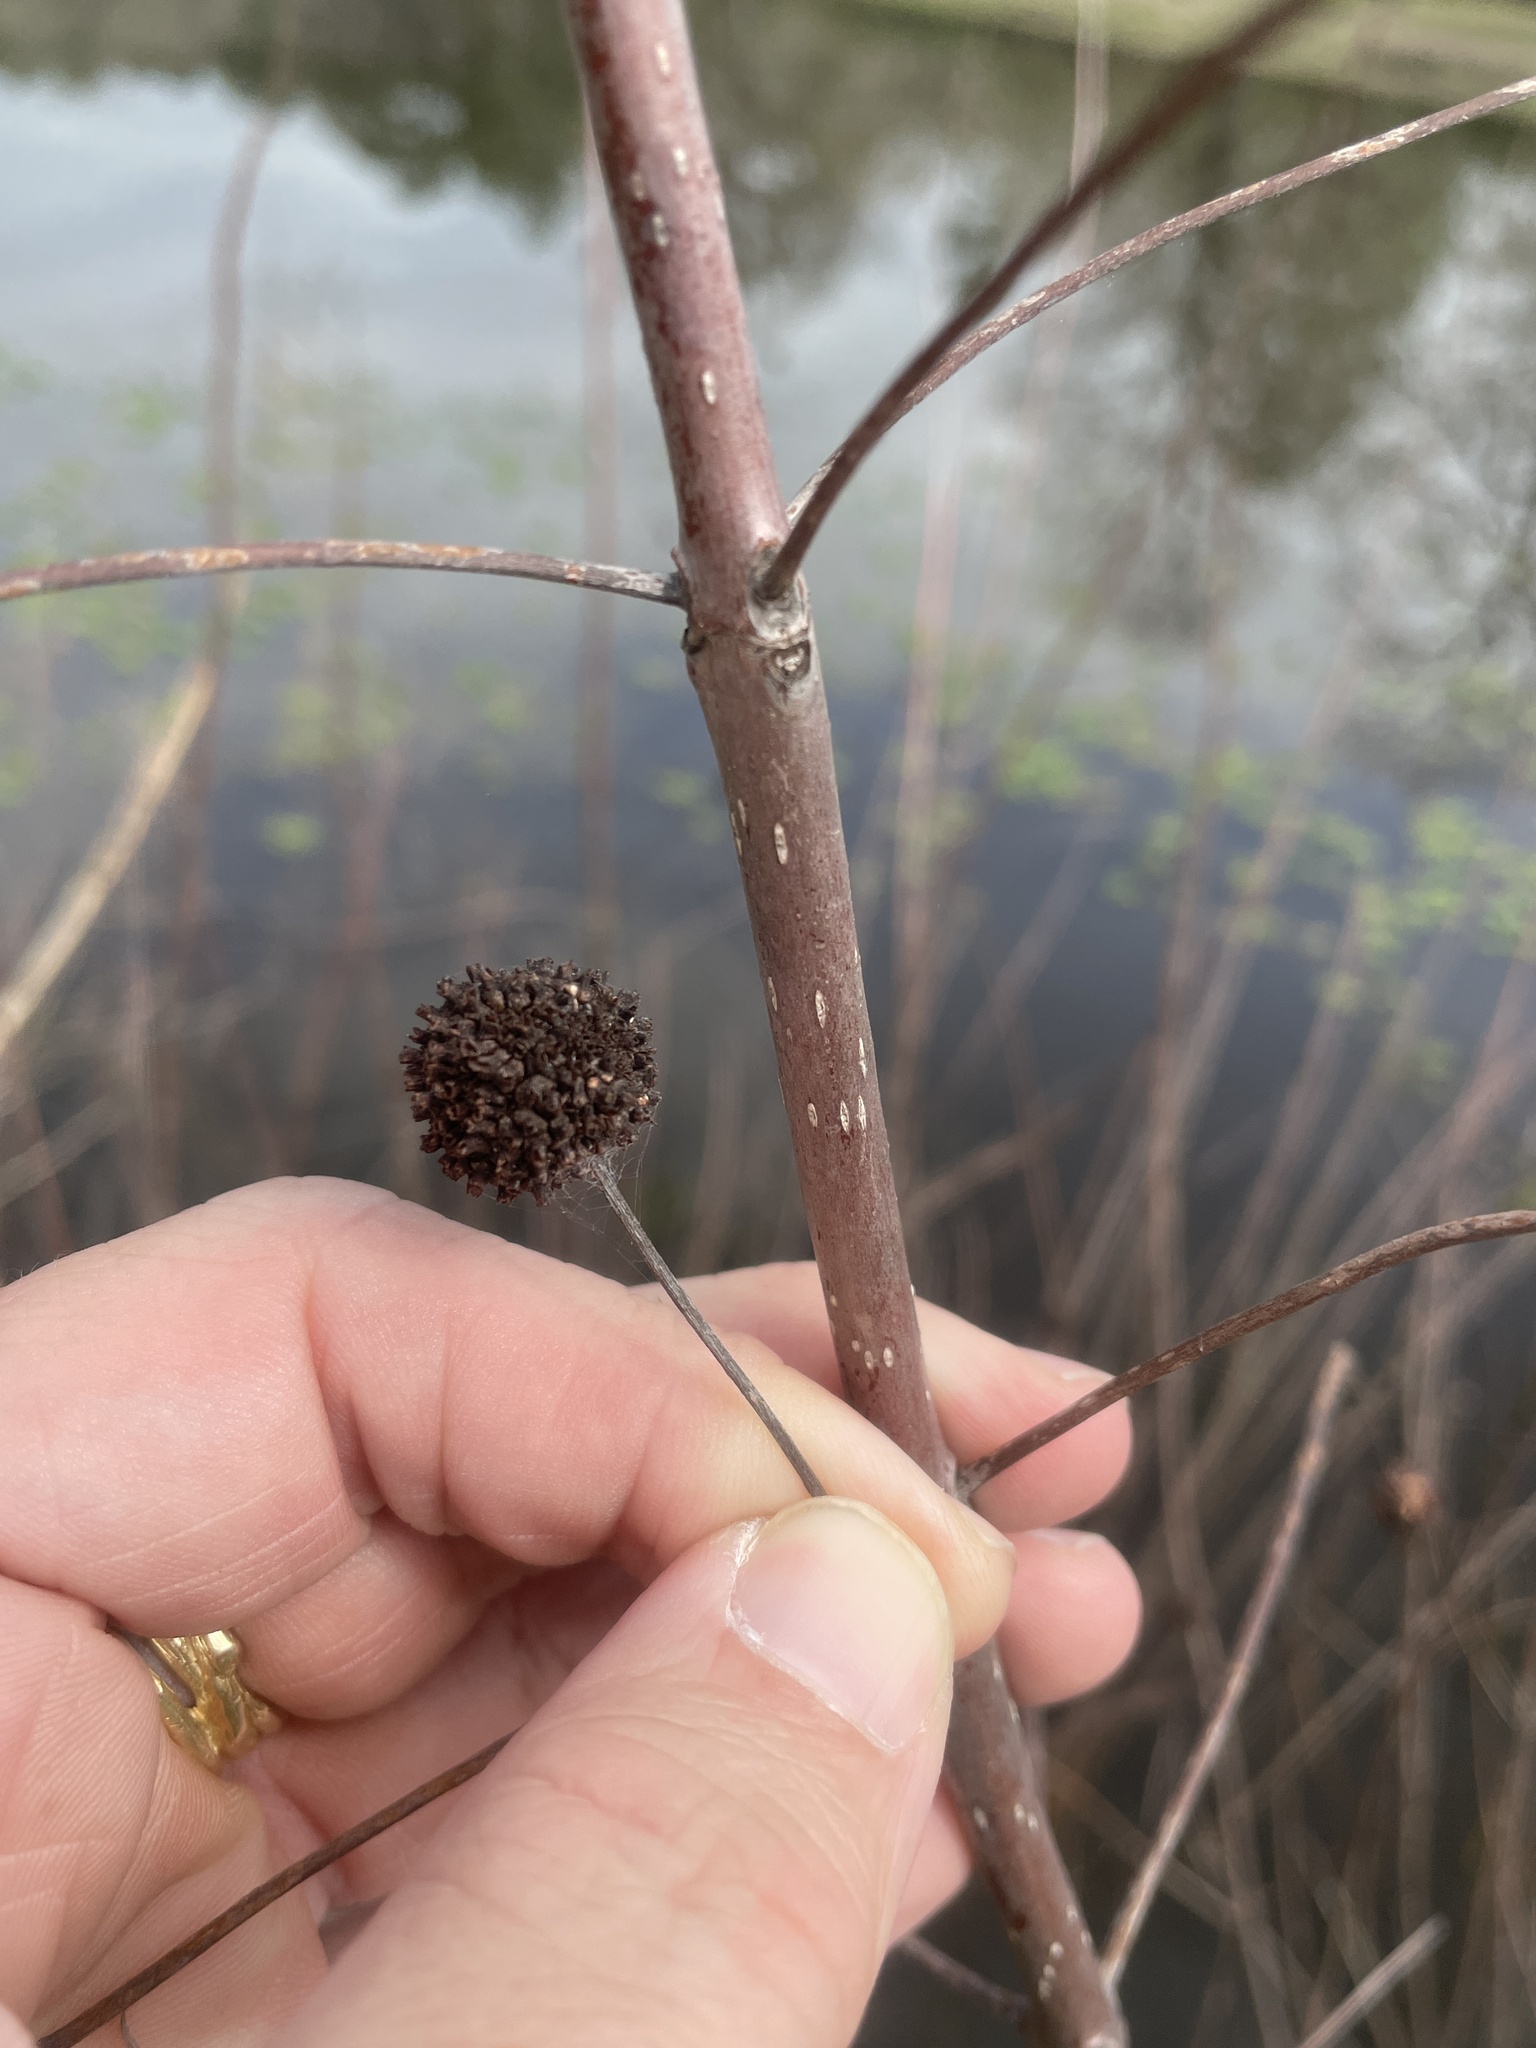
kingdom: Plantae
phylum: Tracheophyta
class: Magnoliopsida
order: Gentianales
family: Rubiaceae
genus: Cephalanthus
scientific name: Cephalanthus occidentalis
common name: Button-willow
